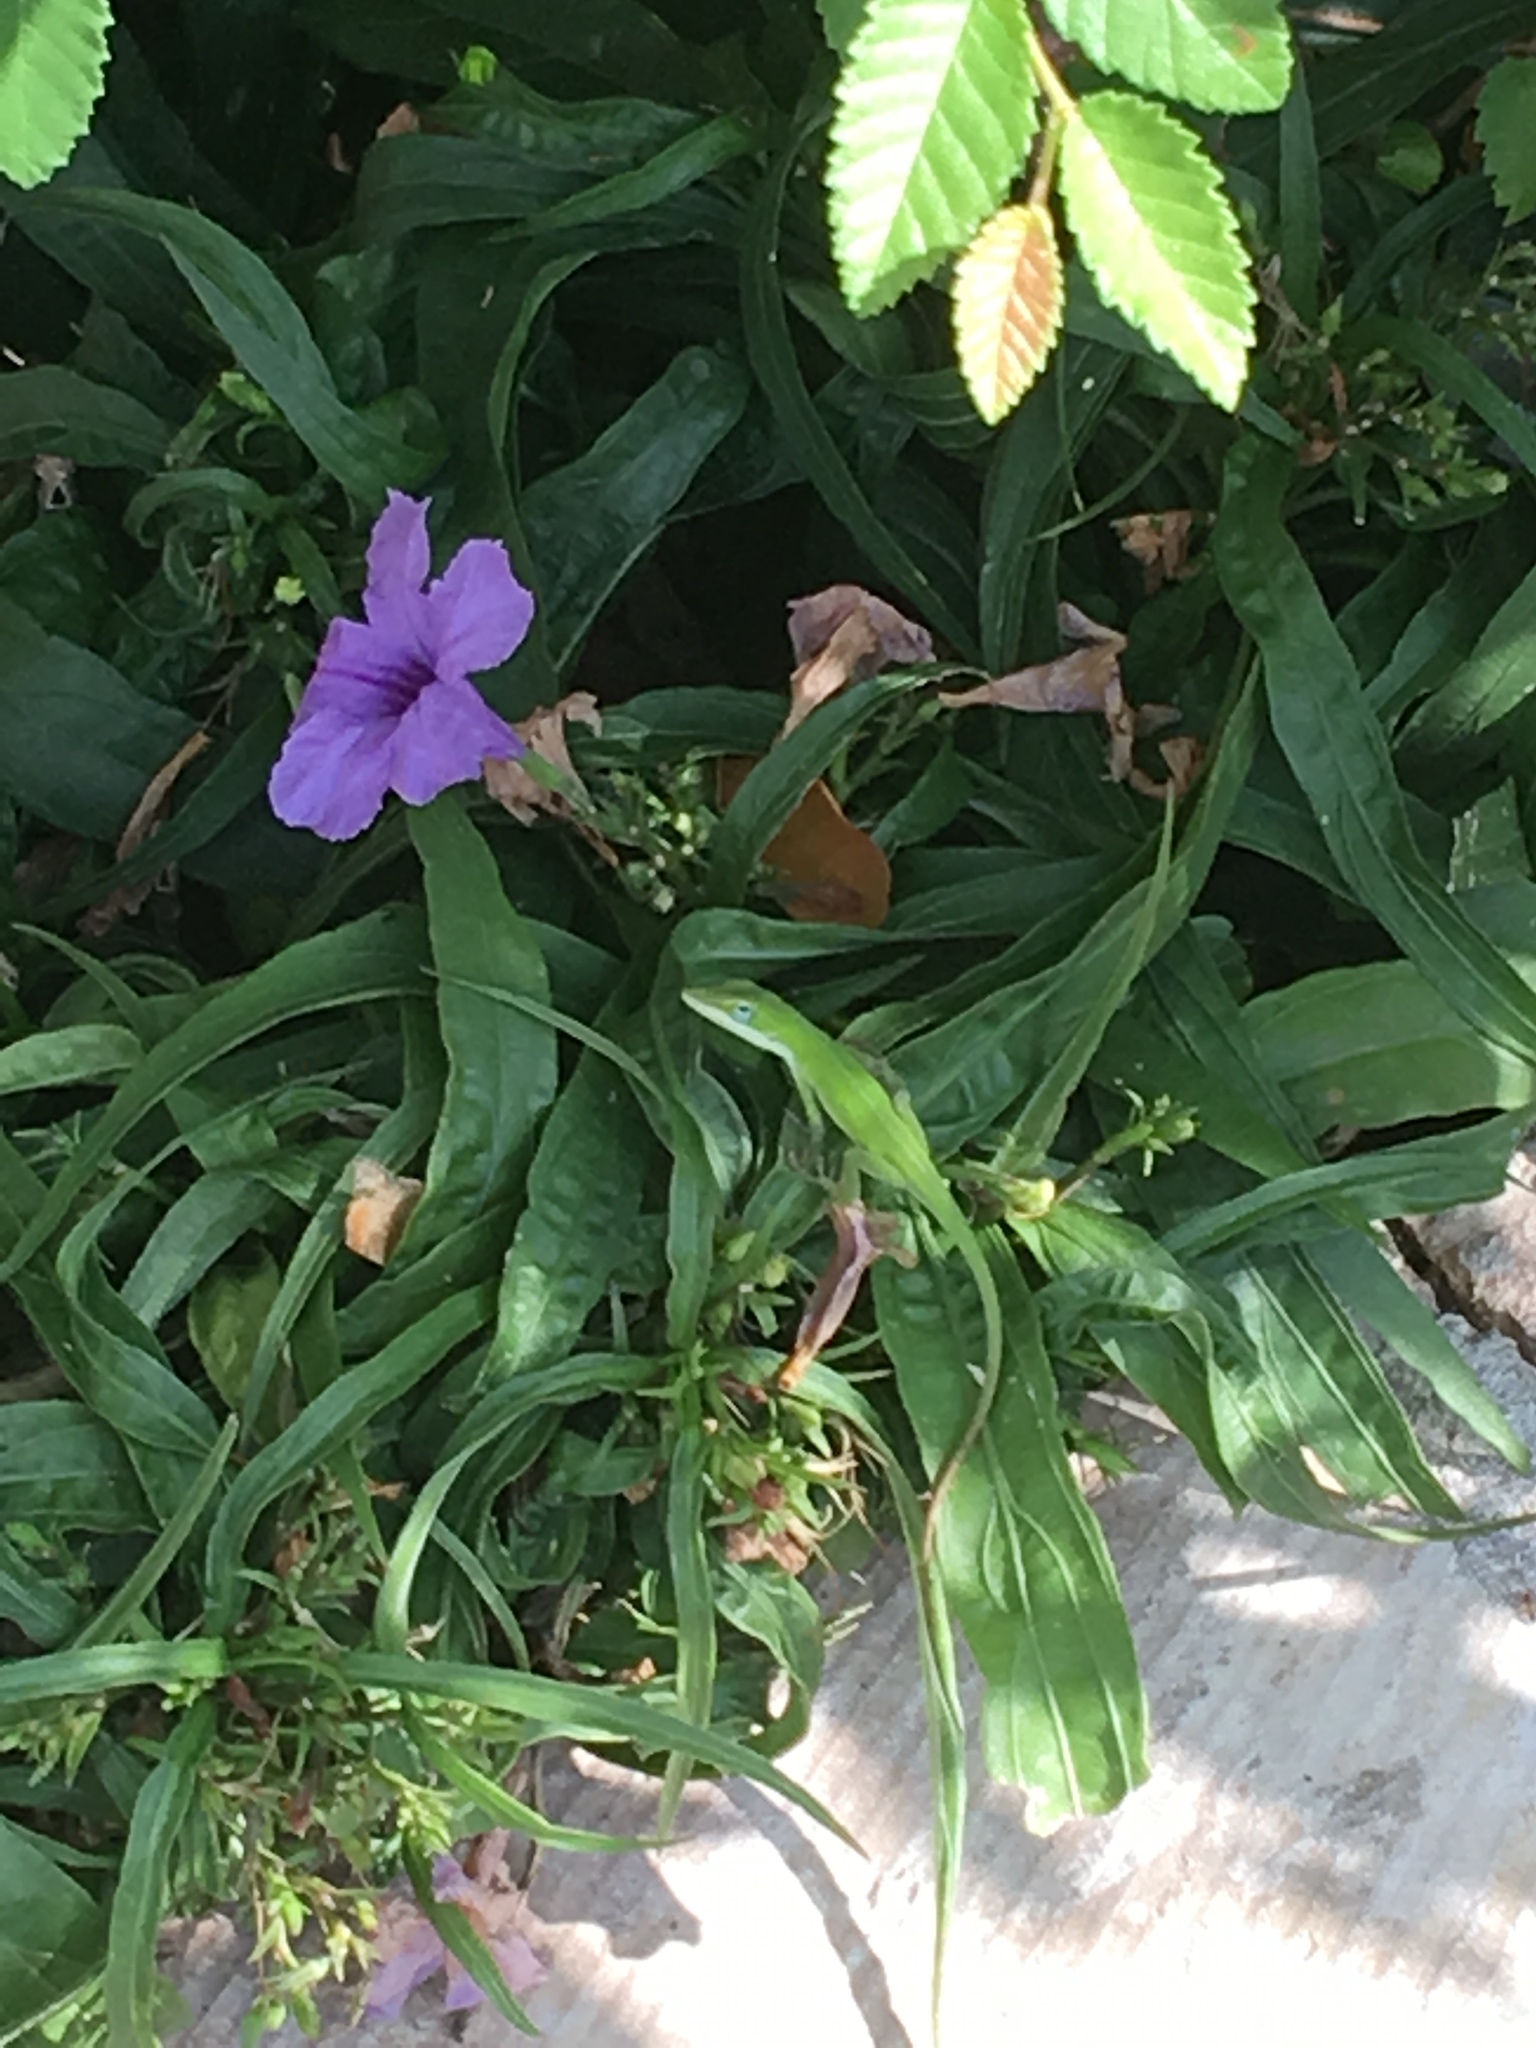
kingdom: Animalia
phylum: Chordata
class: Squamata
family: Dactyloidae
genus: Anolis
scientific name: Anolis carolinensis
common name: Green anole
